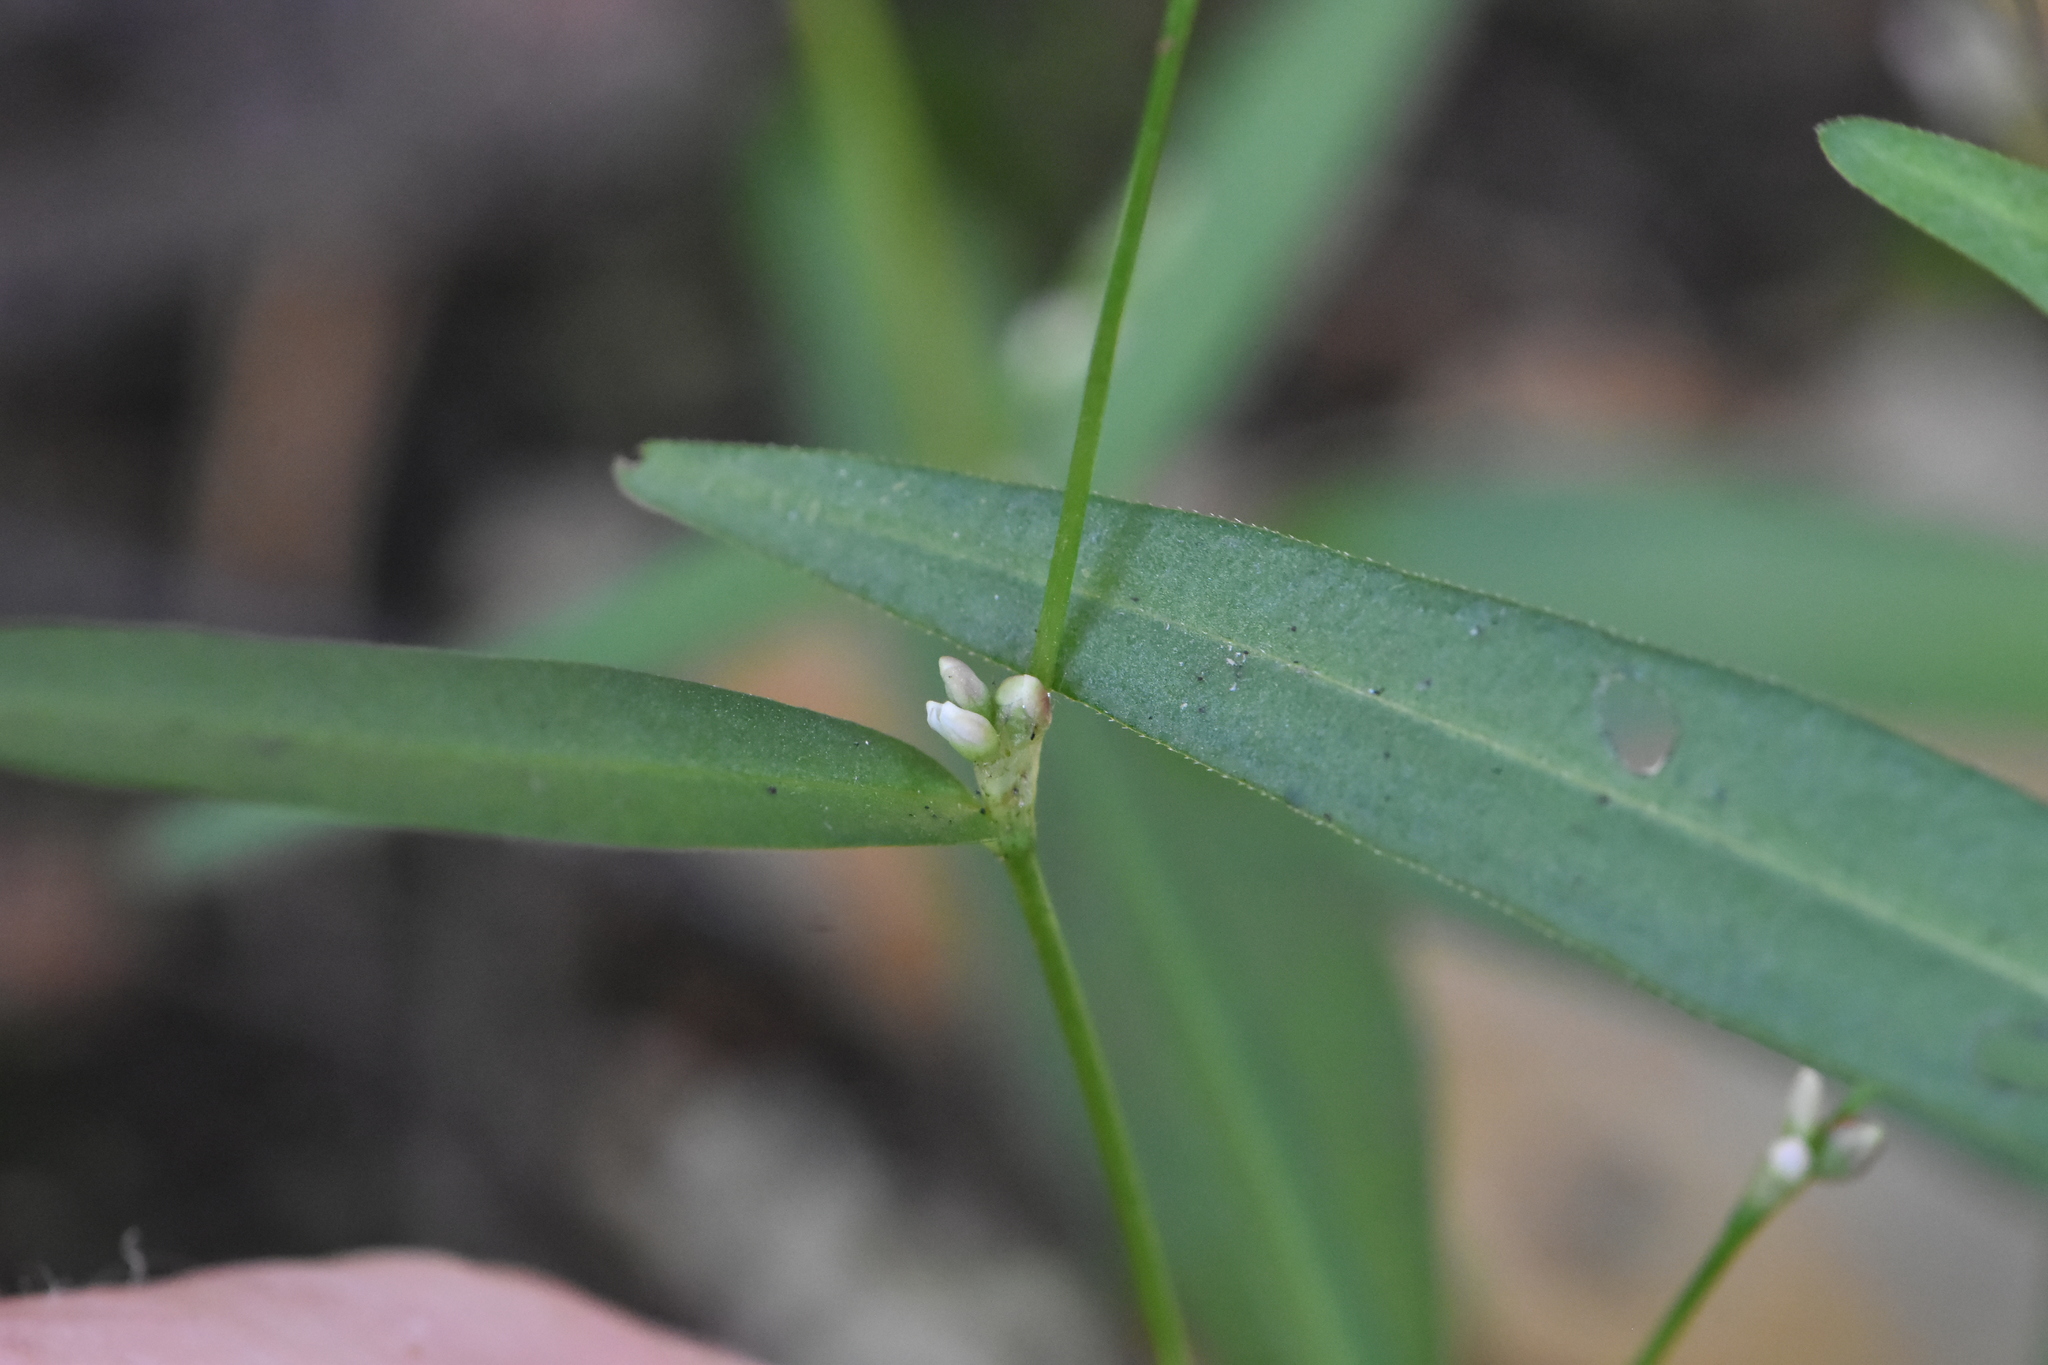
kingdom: Plantae
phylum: Tracheophyta
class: Magnoliopsida
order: Caryophyllales
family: Polygonaceae
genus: Persicaria
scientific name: Persicaria minor
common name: Small water-pepper
